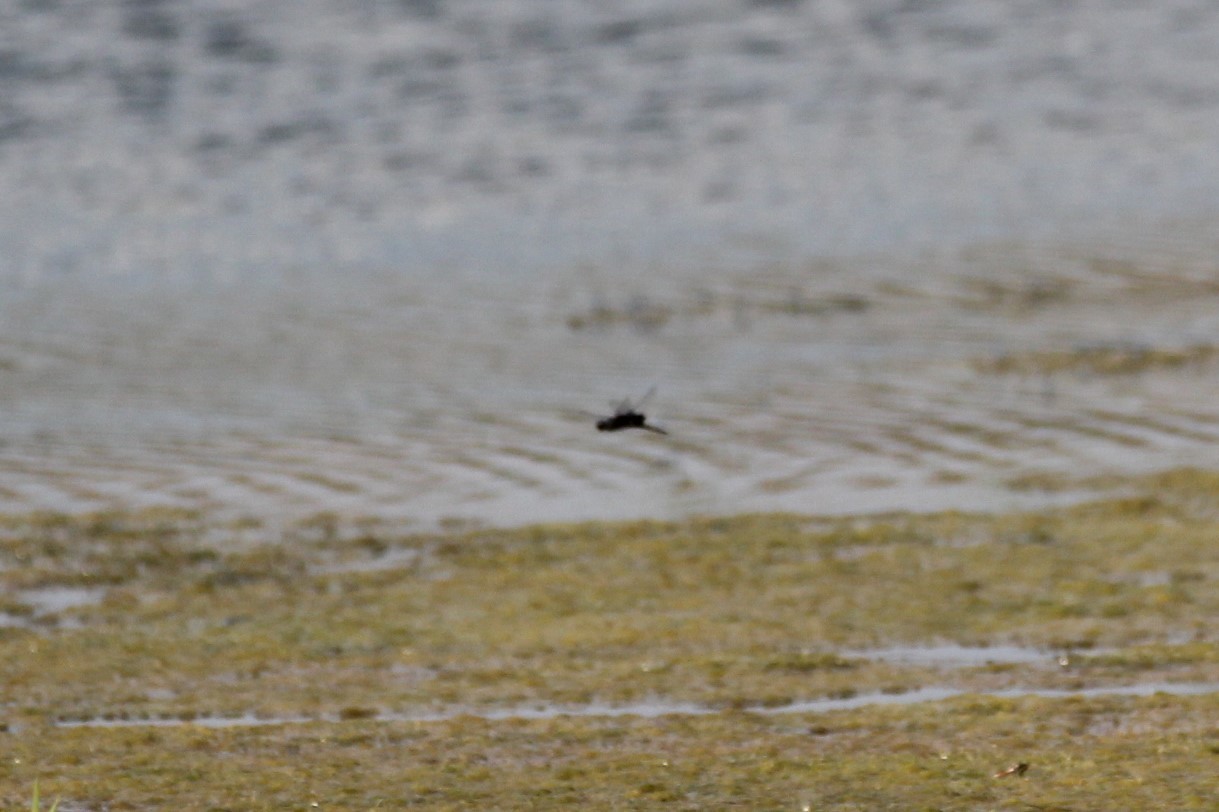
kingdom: Animalia
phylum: Arthropoda
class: Insecta
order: Odonata
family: Libellulidae
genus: Tramea
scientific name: Tramea lacerata
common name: Black saddlebags
